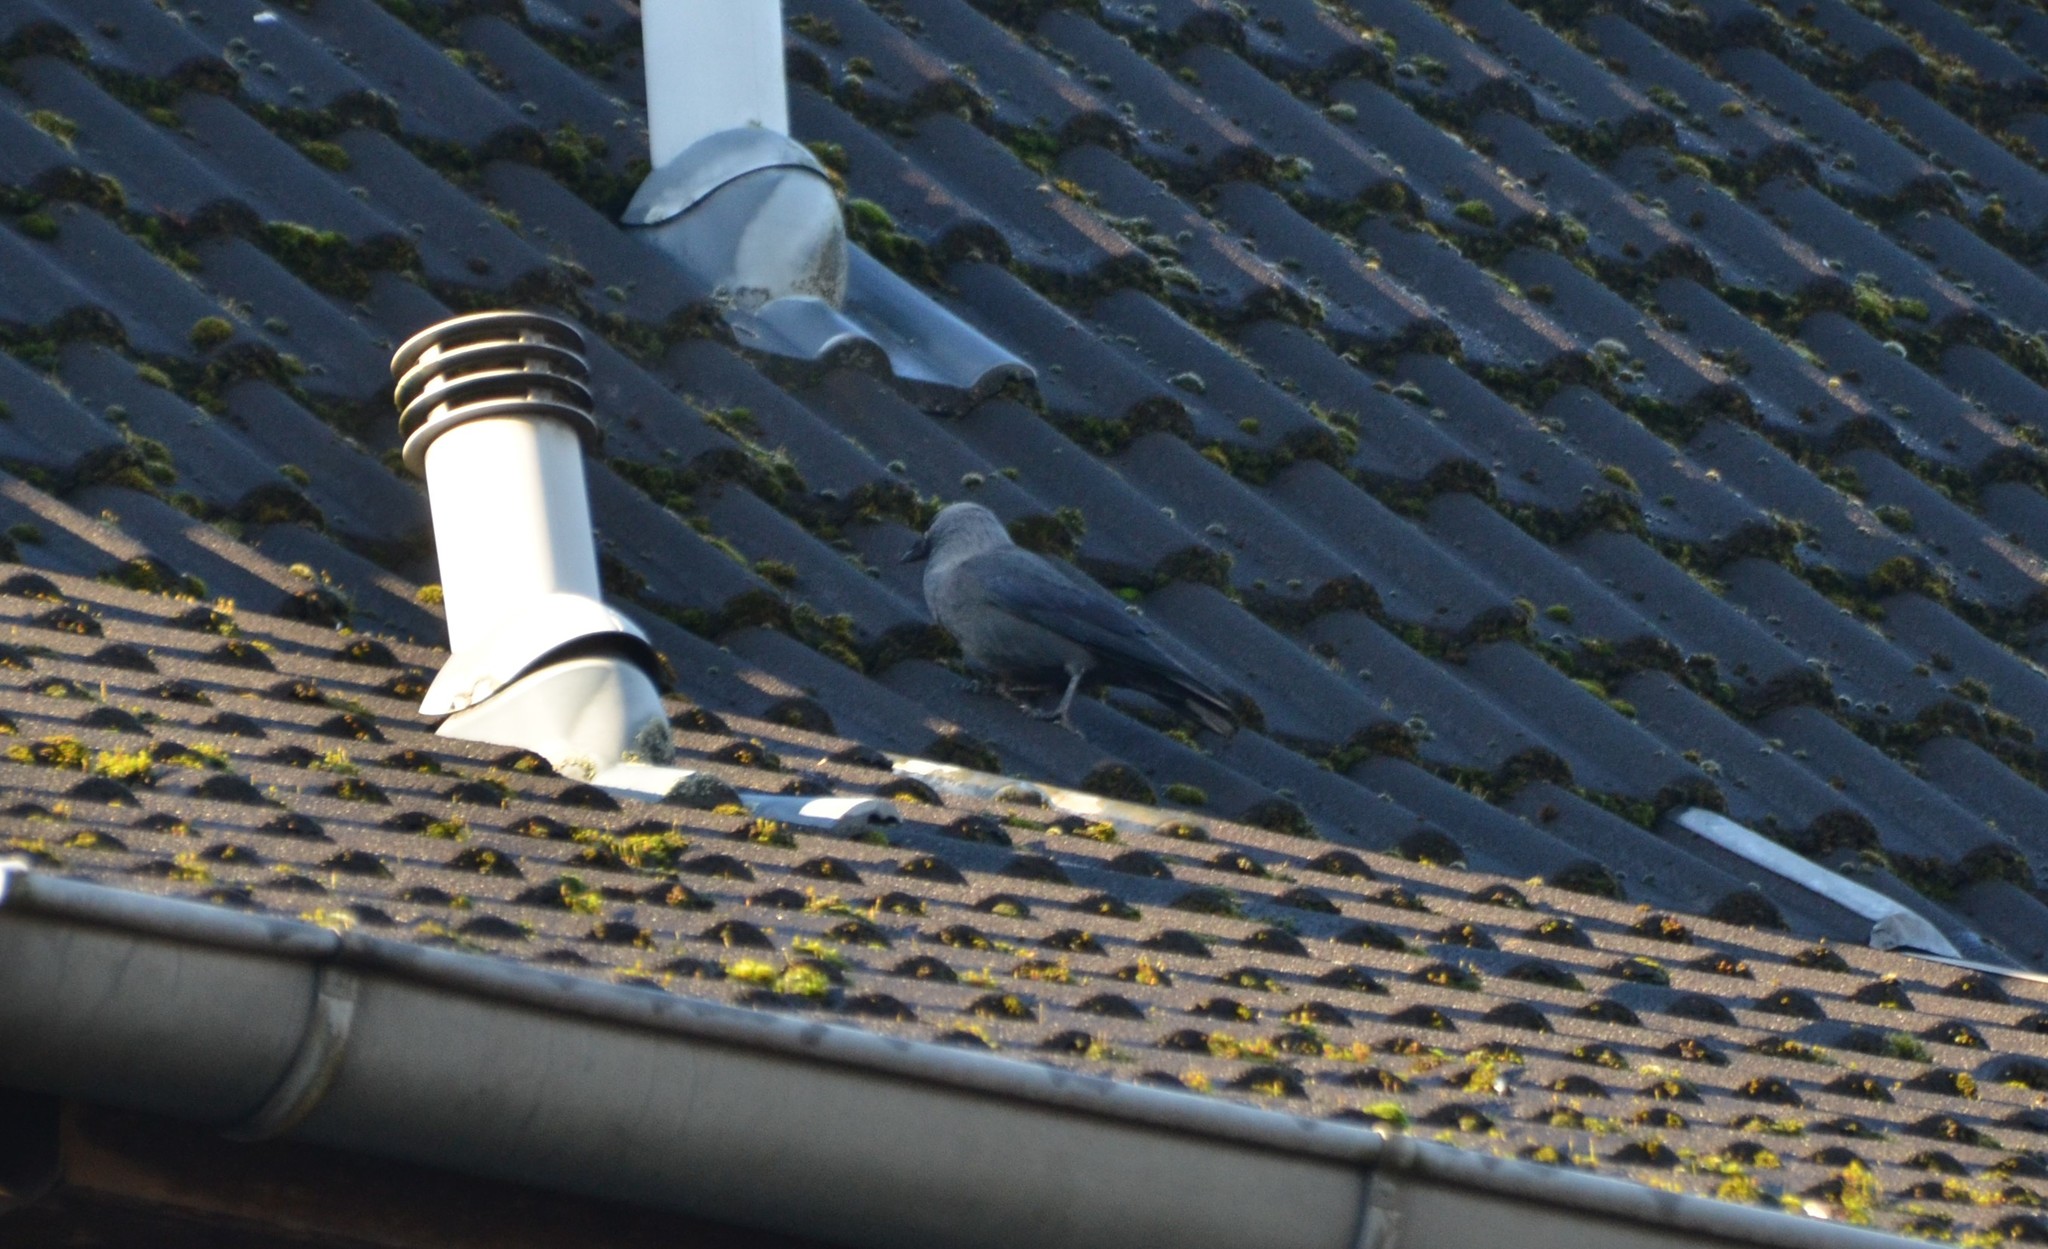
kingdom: Animalia
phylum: Chordata
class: Aves
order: Passeriformes
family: Corvidae
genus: Coloeus
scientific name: Coloeus monedula
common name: Western jackdaw
